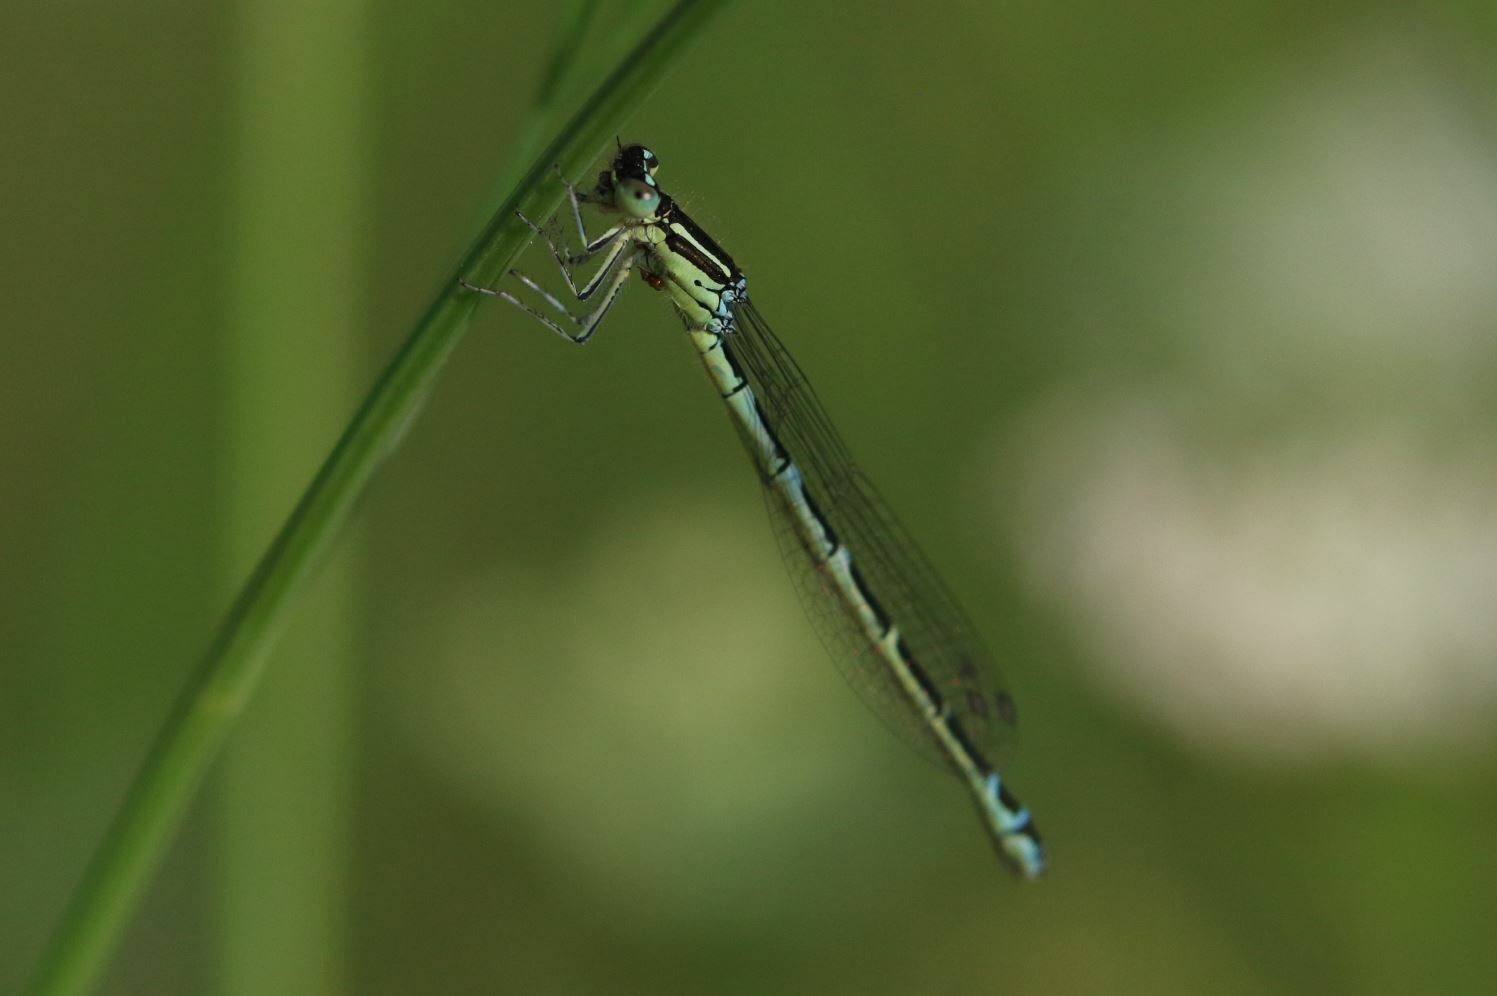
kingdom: Animalia
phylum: Arthropoda
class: Insecta
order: Odonata
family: Coenagrionidae
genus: Coenagrion
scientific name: Coenagrion scitulum
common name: Dainty bluet
